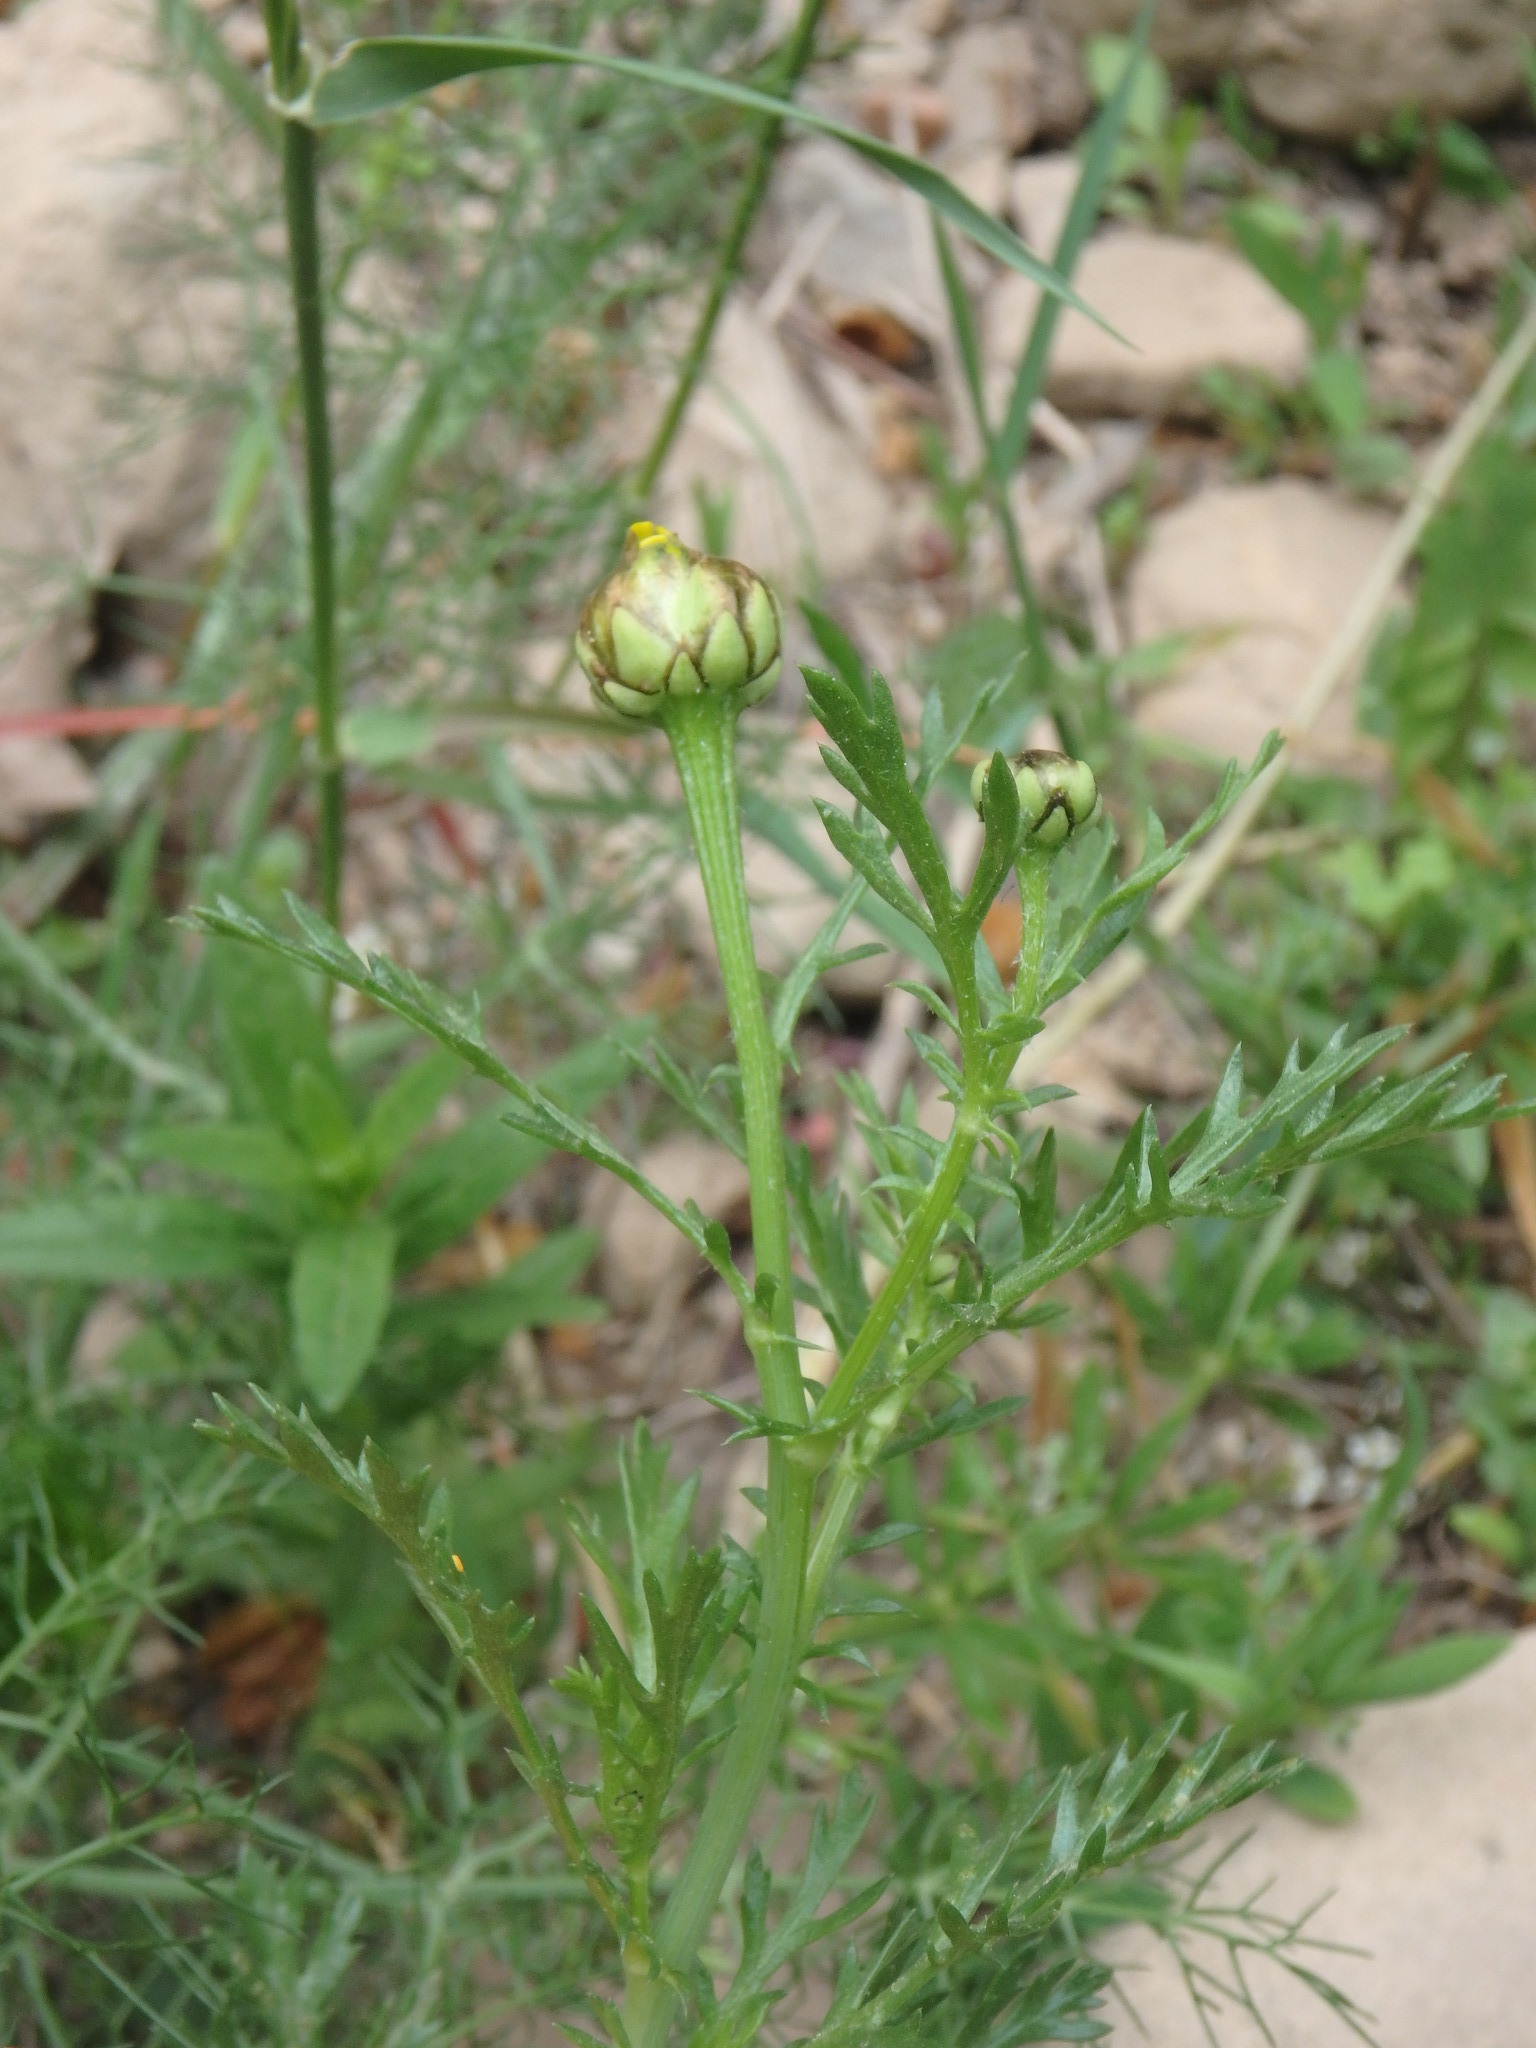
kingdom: Plantae
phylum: Tracheophyta
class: Magnoliopsida
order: Asterales
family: Asteraceae
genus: Glebionis
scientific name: Glebionis coronaria
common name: Crowndaisy
